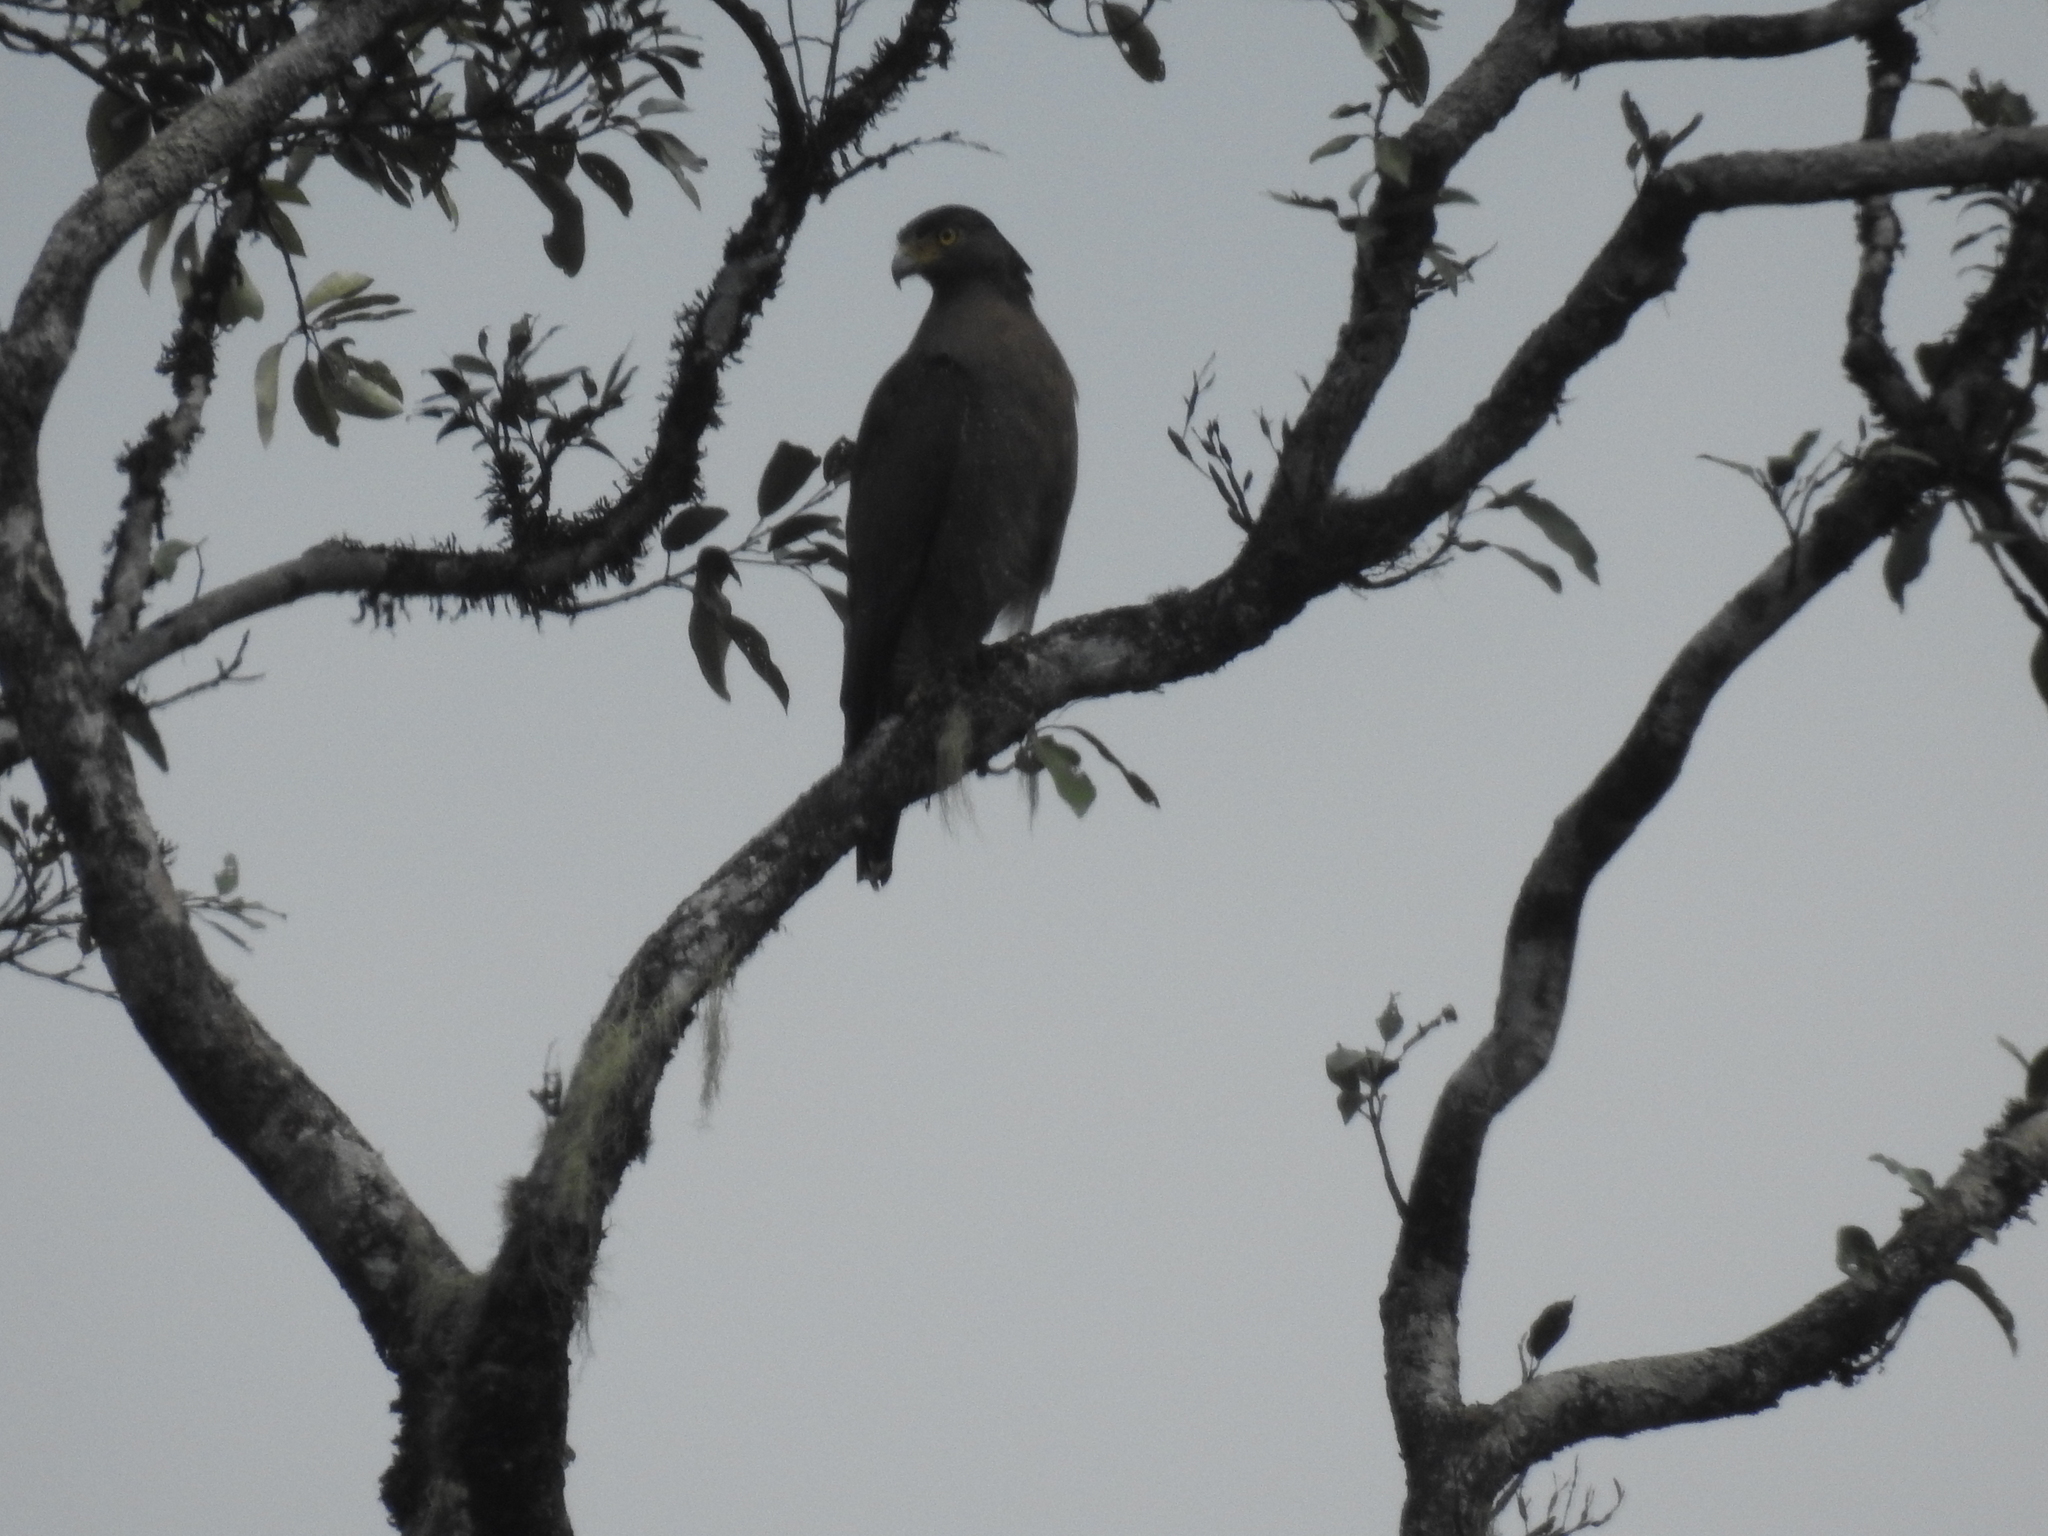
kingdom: Animalia
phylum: Chordata
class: Aves
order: Accipitriformes
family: Accipitridae
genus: Spilornis
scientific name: Spilornis cheela
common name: Crested serpent eagle
